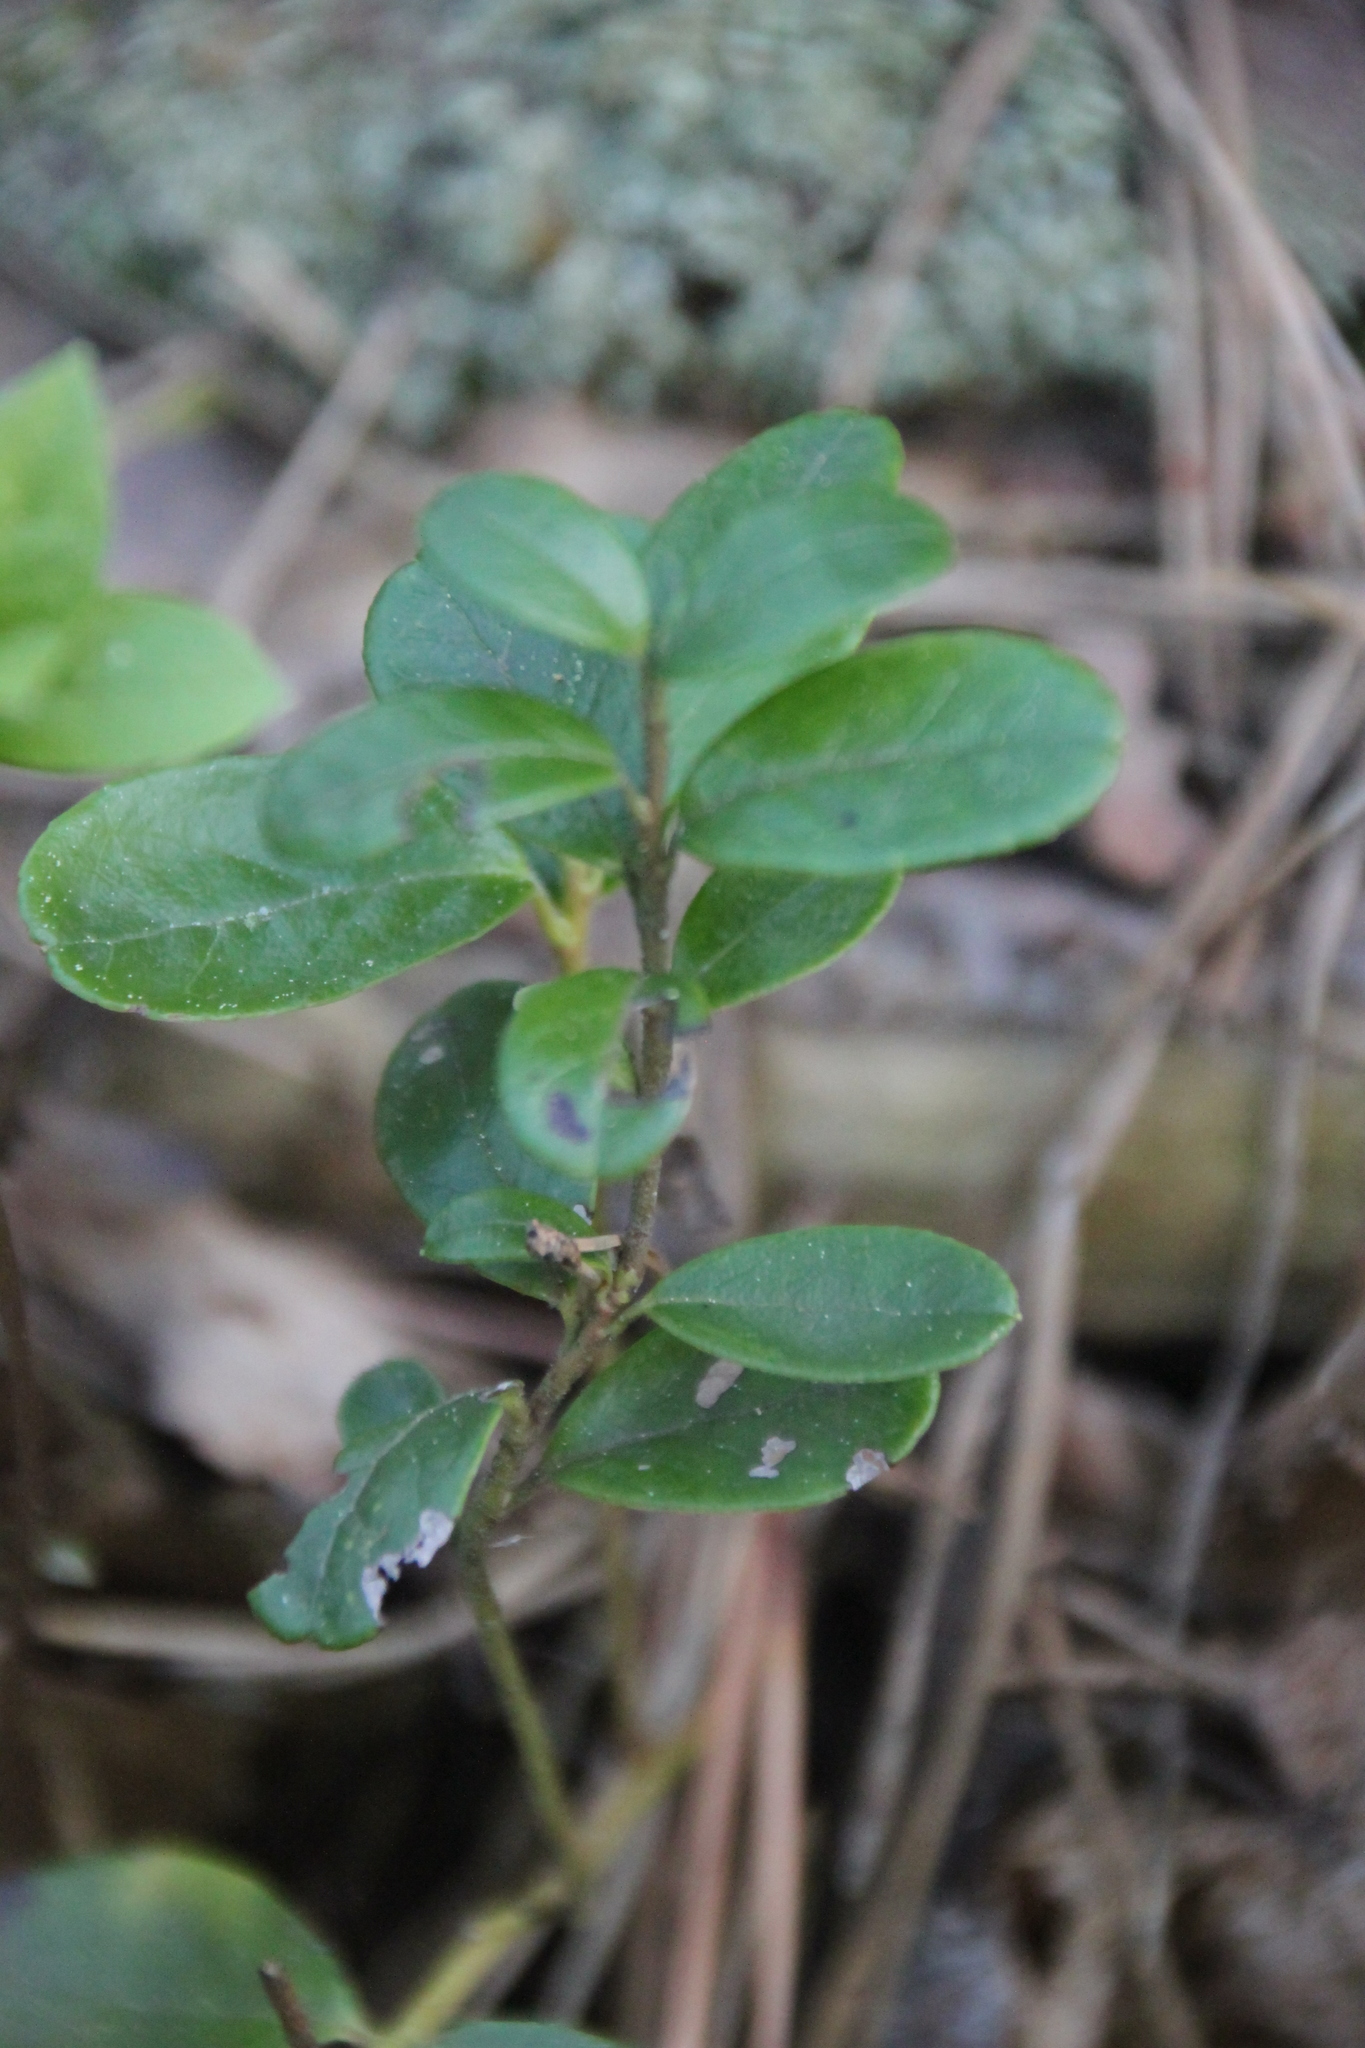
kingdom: Plantae
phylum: Tracheophyta
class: Magnoliopsida
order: Ericales
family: Ericaceae
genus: Vaccinium
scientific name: Vaccinium vitis-idaea
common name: Cowberry
